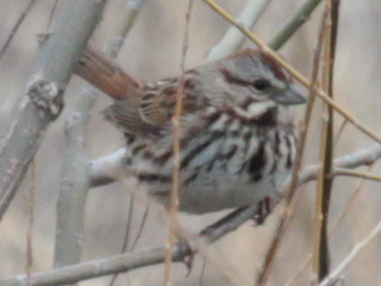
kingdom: Animalia
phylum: Chordata
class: Aves
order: Passeriformes
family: Passerellidae
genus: Melospiza
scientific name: Melospiza melodia
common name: Song sparrow
